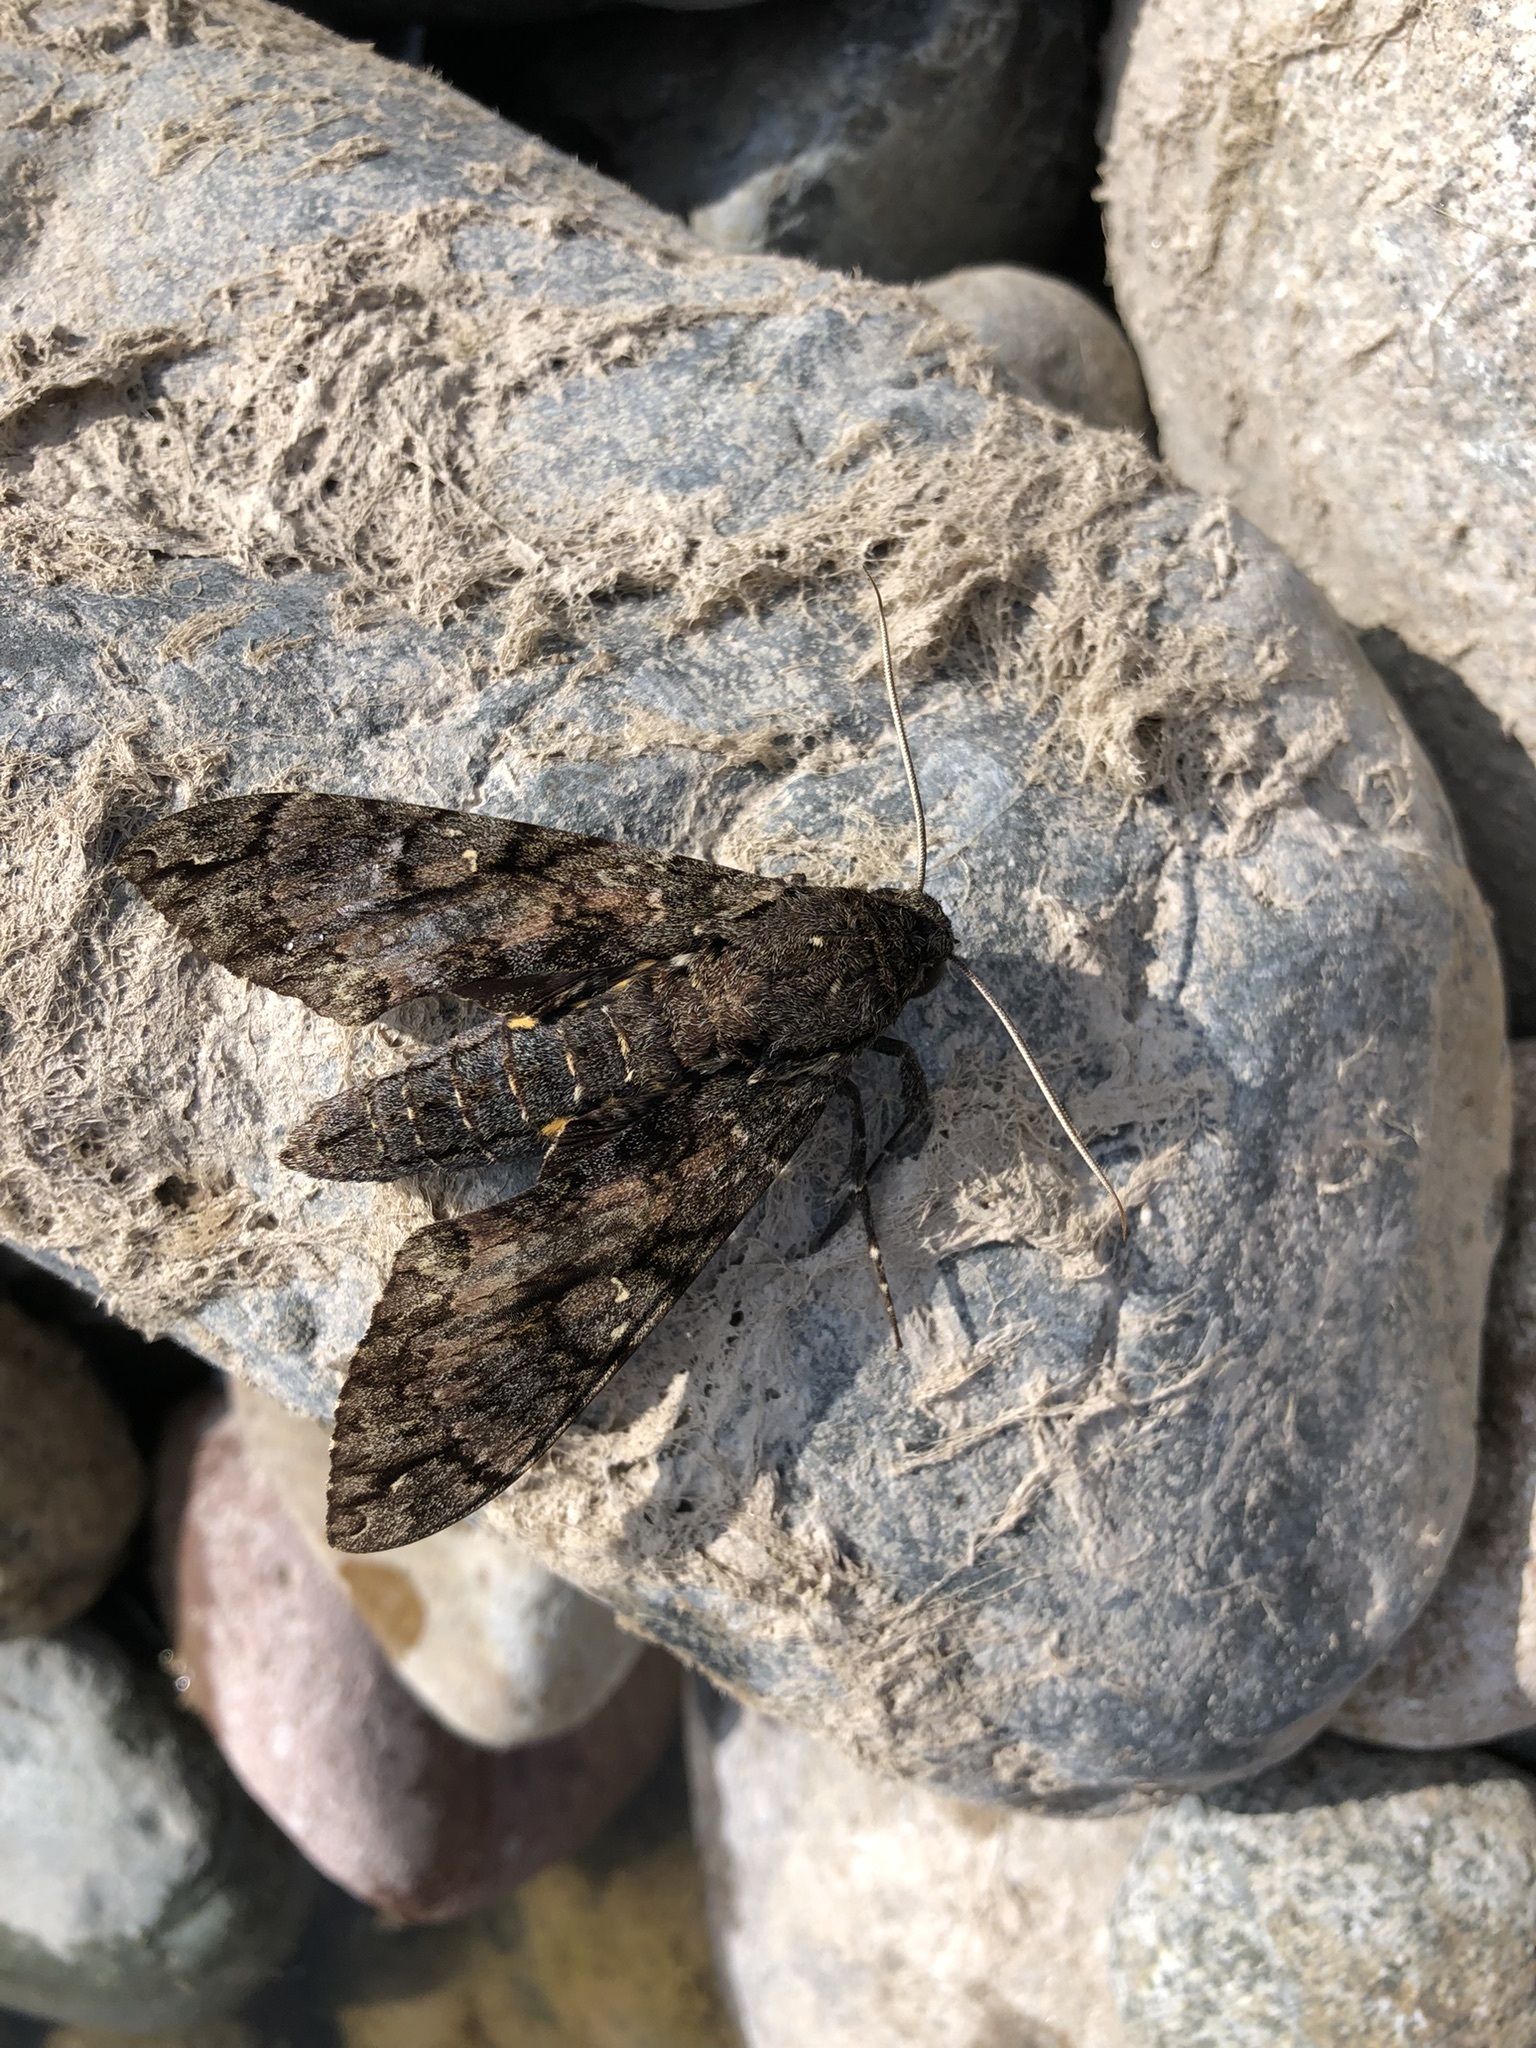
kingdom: Animalia
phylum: Arthropoda
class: Insecta
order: Lepidoptera
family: Sphingidae
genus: Cocytius
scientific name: Cocytius antaeus
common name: Giant sphinx
